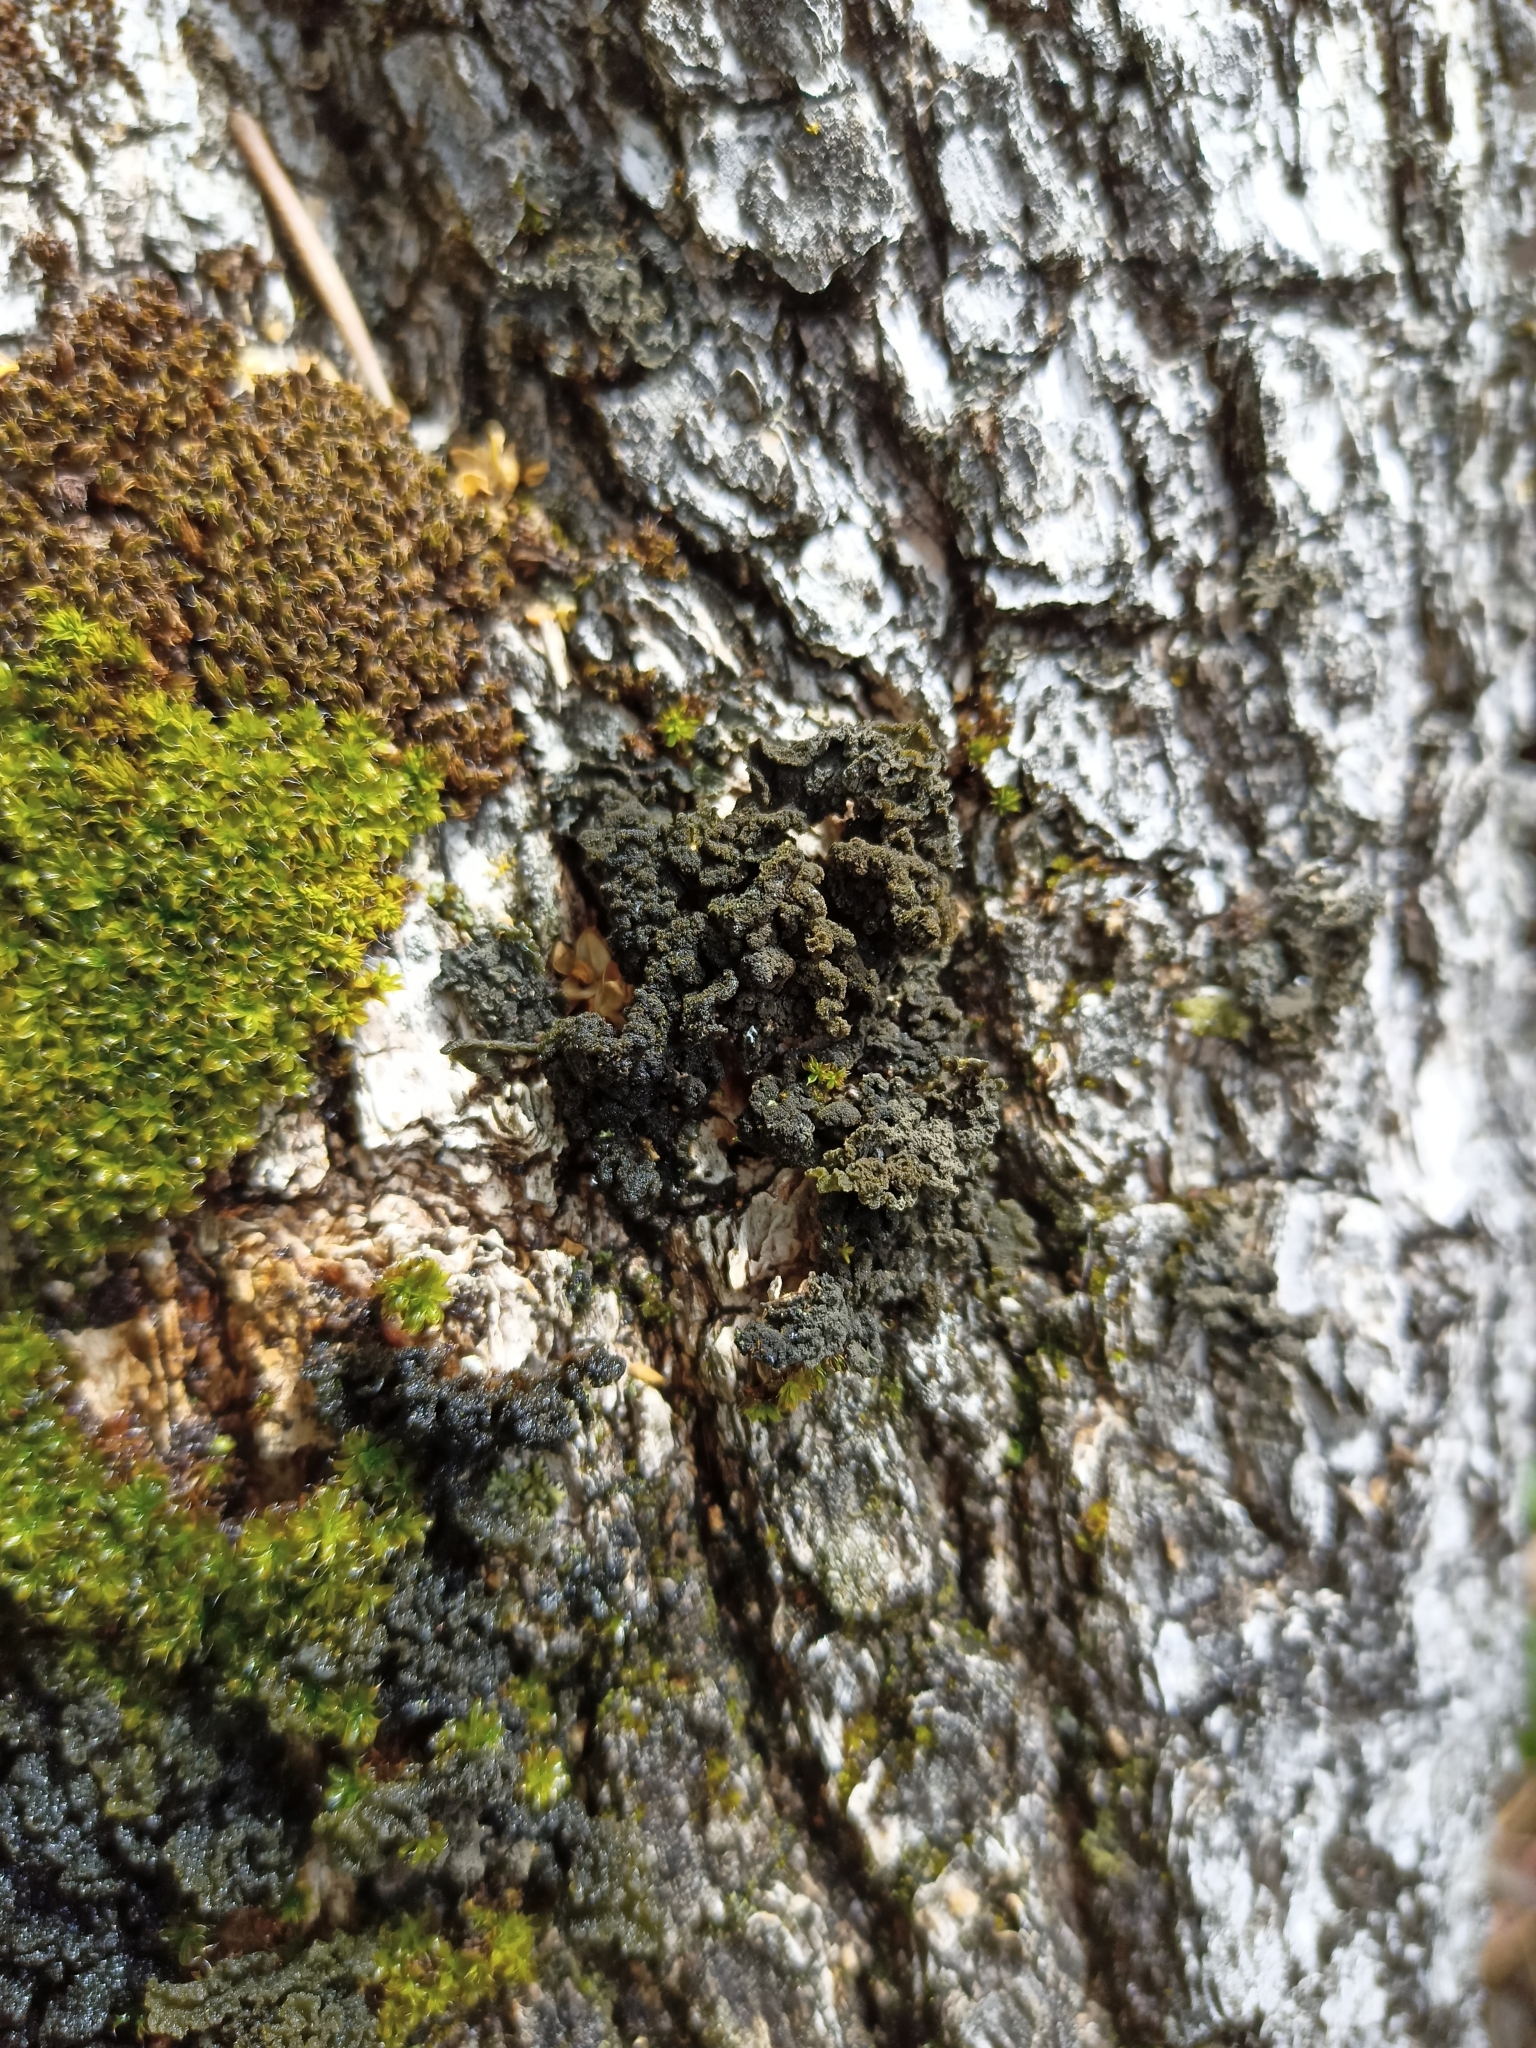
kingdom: Fungi
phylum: Ascomycota
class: Lecanoromycetes
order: Peltigerales
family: Collemataceae
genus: Leptogium
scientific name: Leptogium brebissonii
